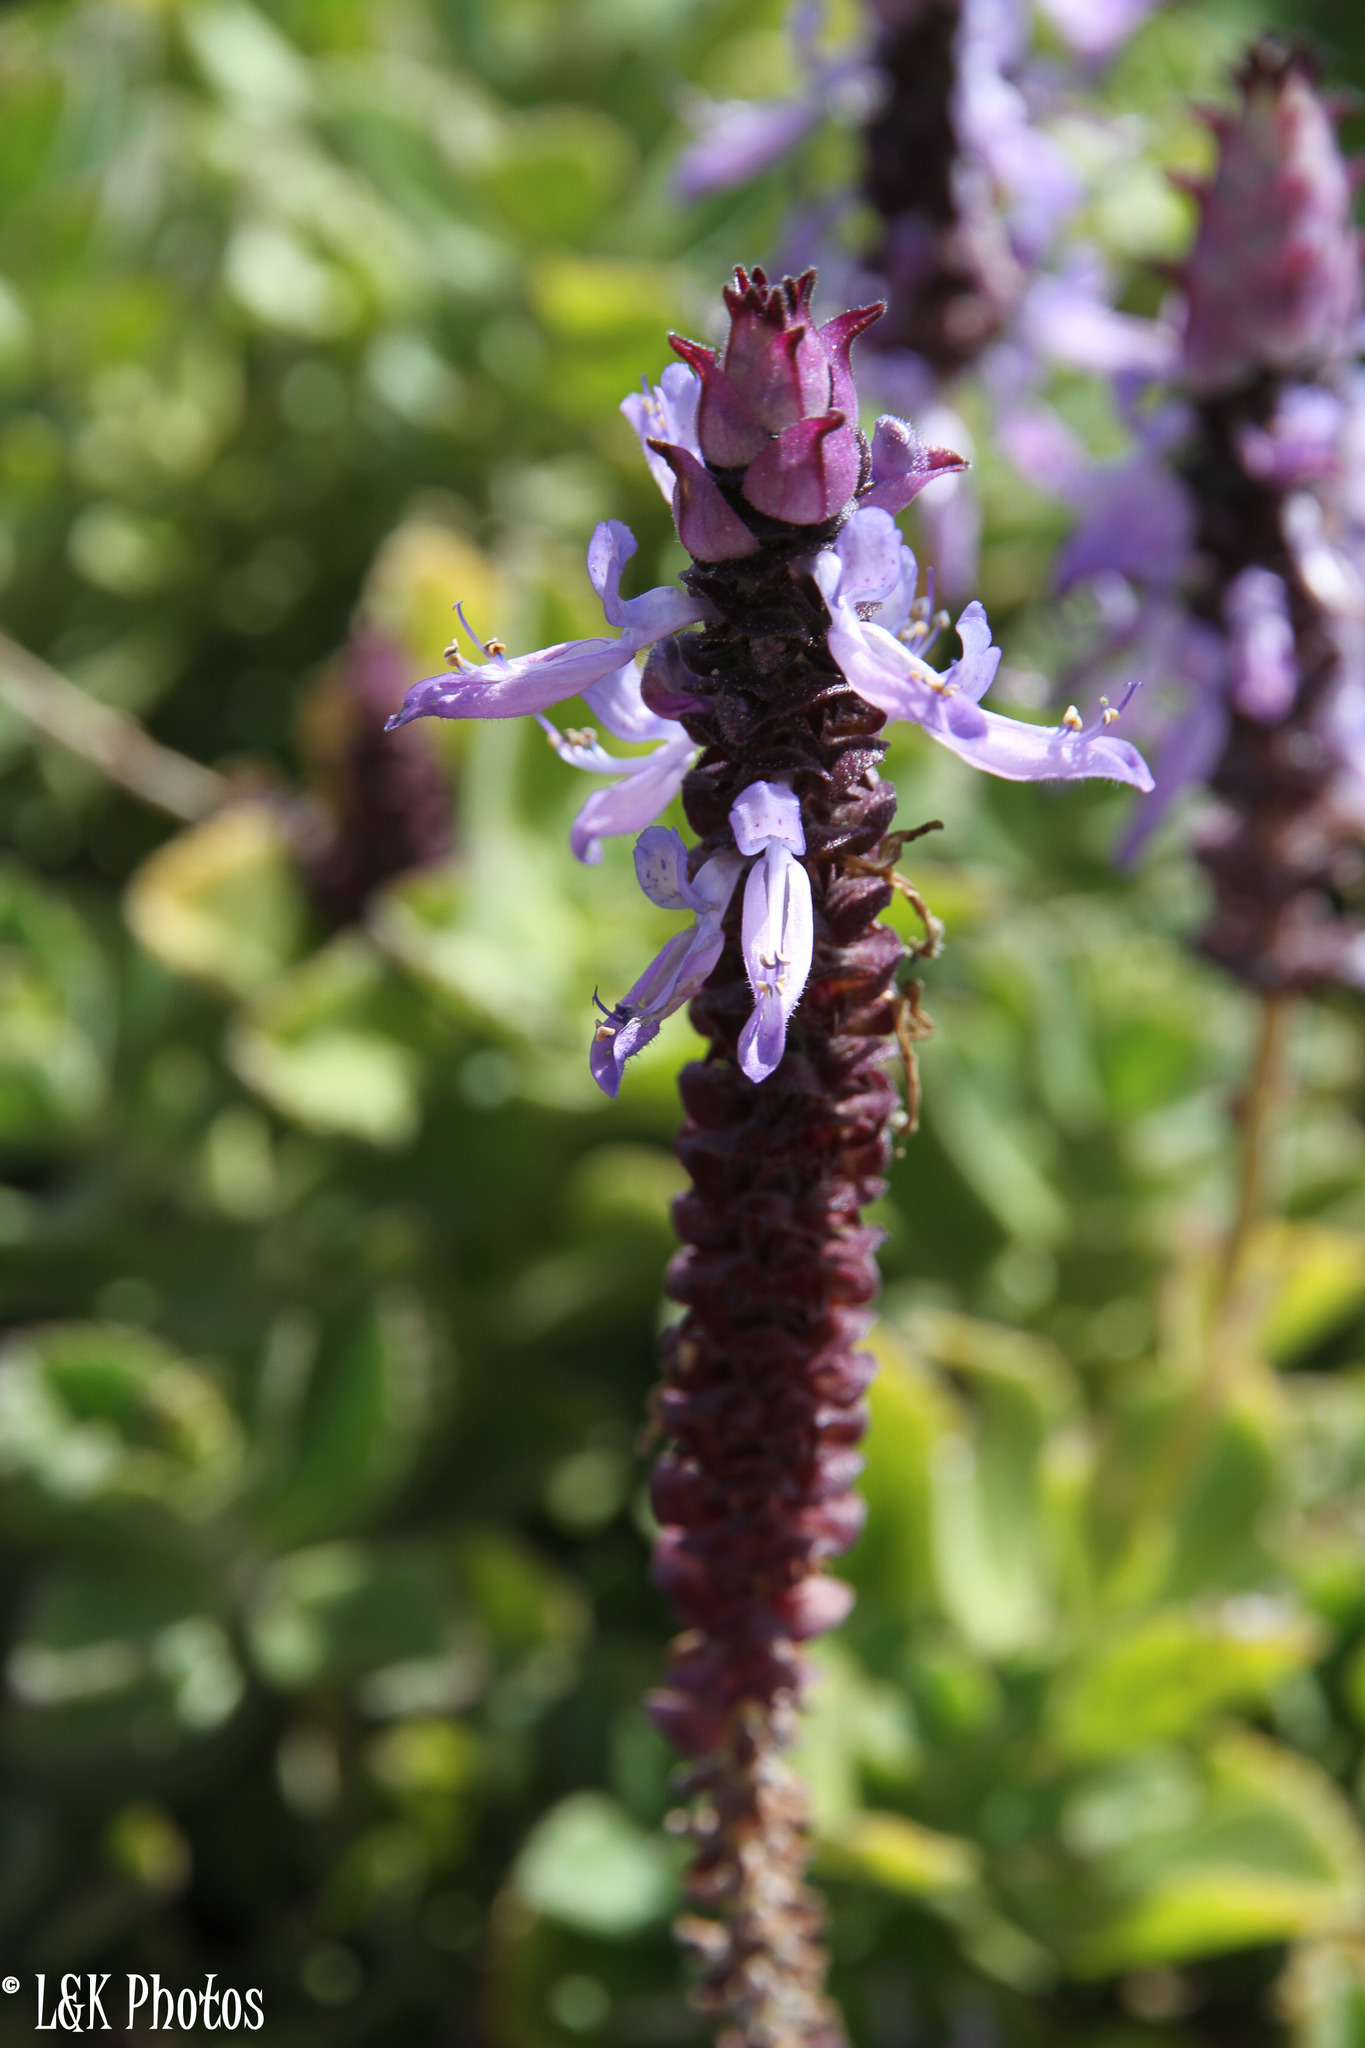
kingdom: Plantae
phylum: Tracheophyta
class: Magnoliopsida
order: Lamiales
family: Lamiaceae
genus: Coleus
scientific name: Coleus neochilus
